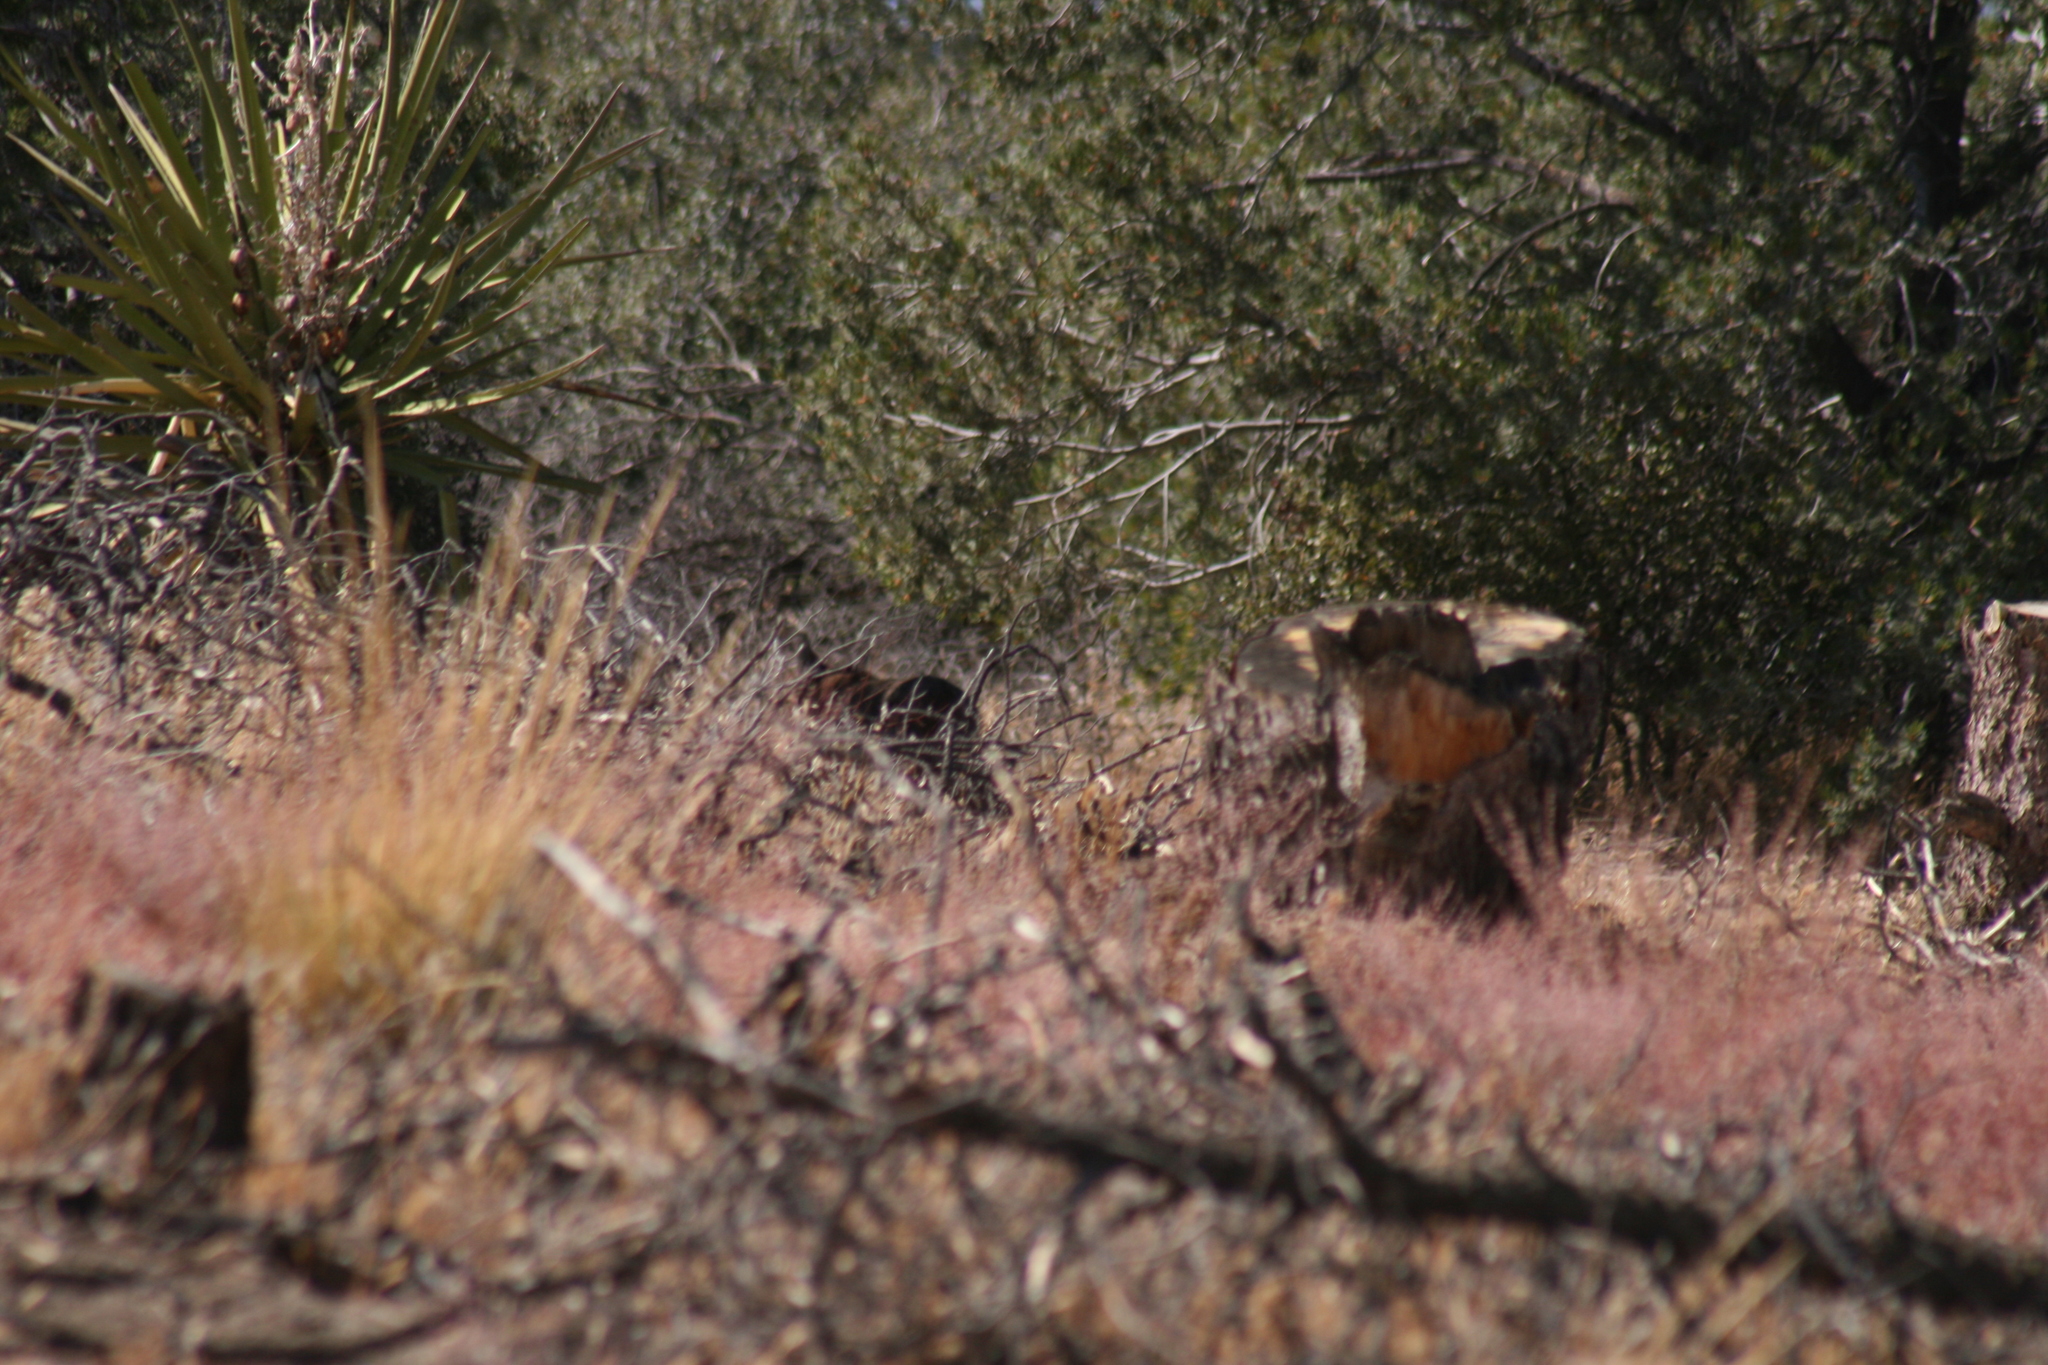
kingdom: Animalia
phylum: Chordata
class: Mammalia
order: Carnivora
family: Felidae
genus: Lynx
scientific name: Lynx rufus
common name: Bobcat
